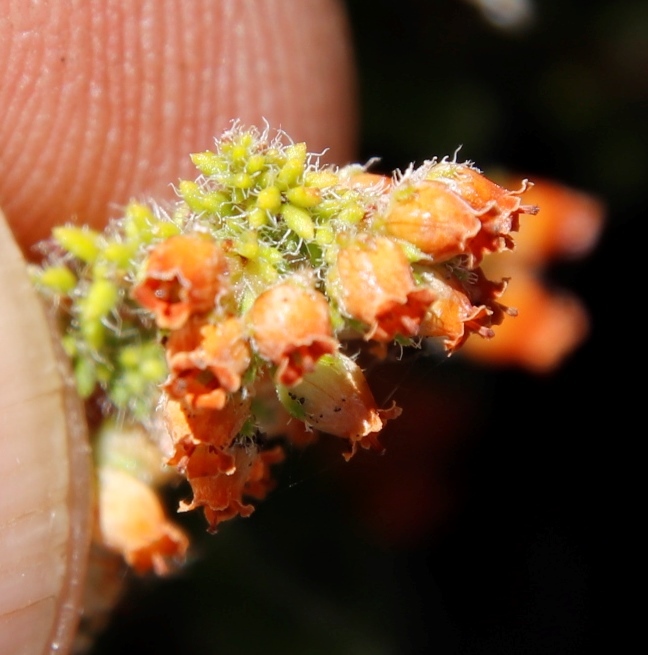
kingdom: Plantae
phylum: Tracheophyta
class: Magnoliopsida
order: Ericales
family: Ericaceae
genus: Erica
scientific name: Erica frigida
